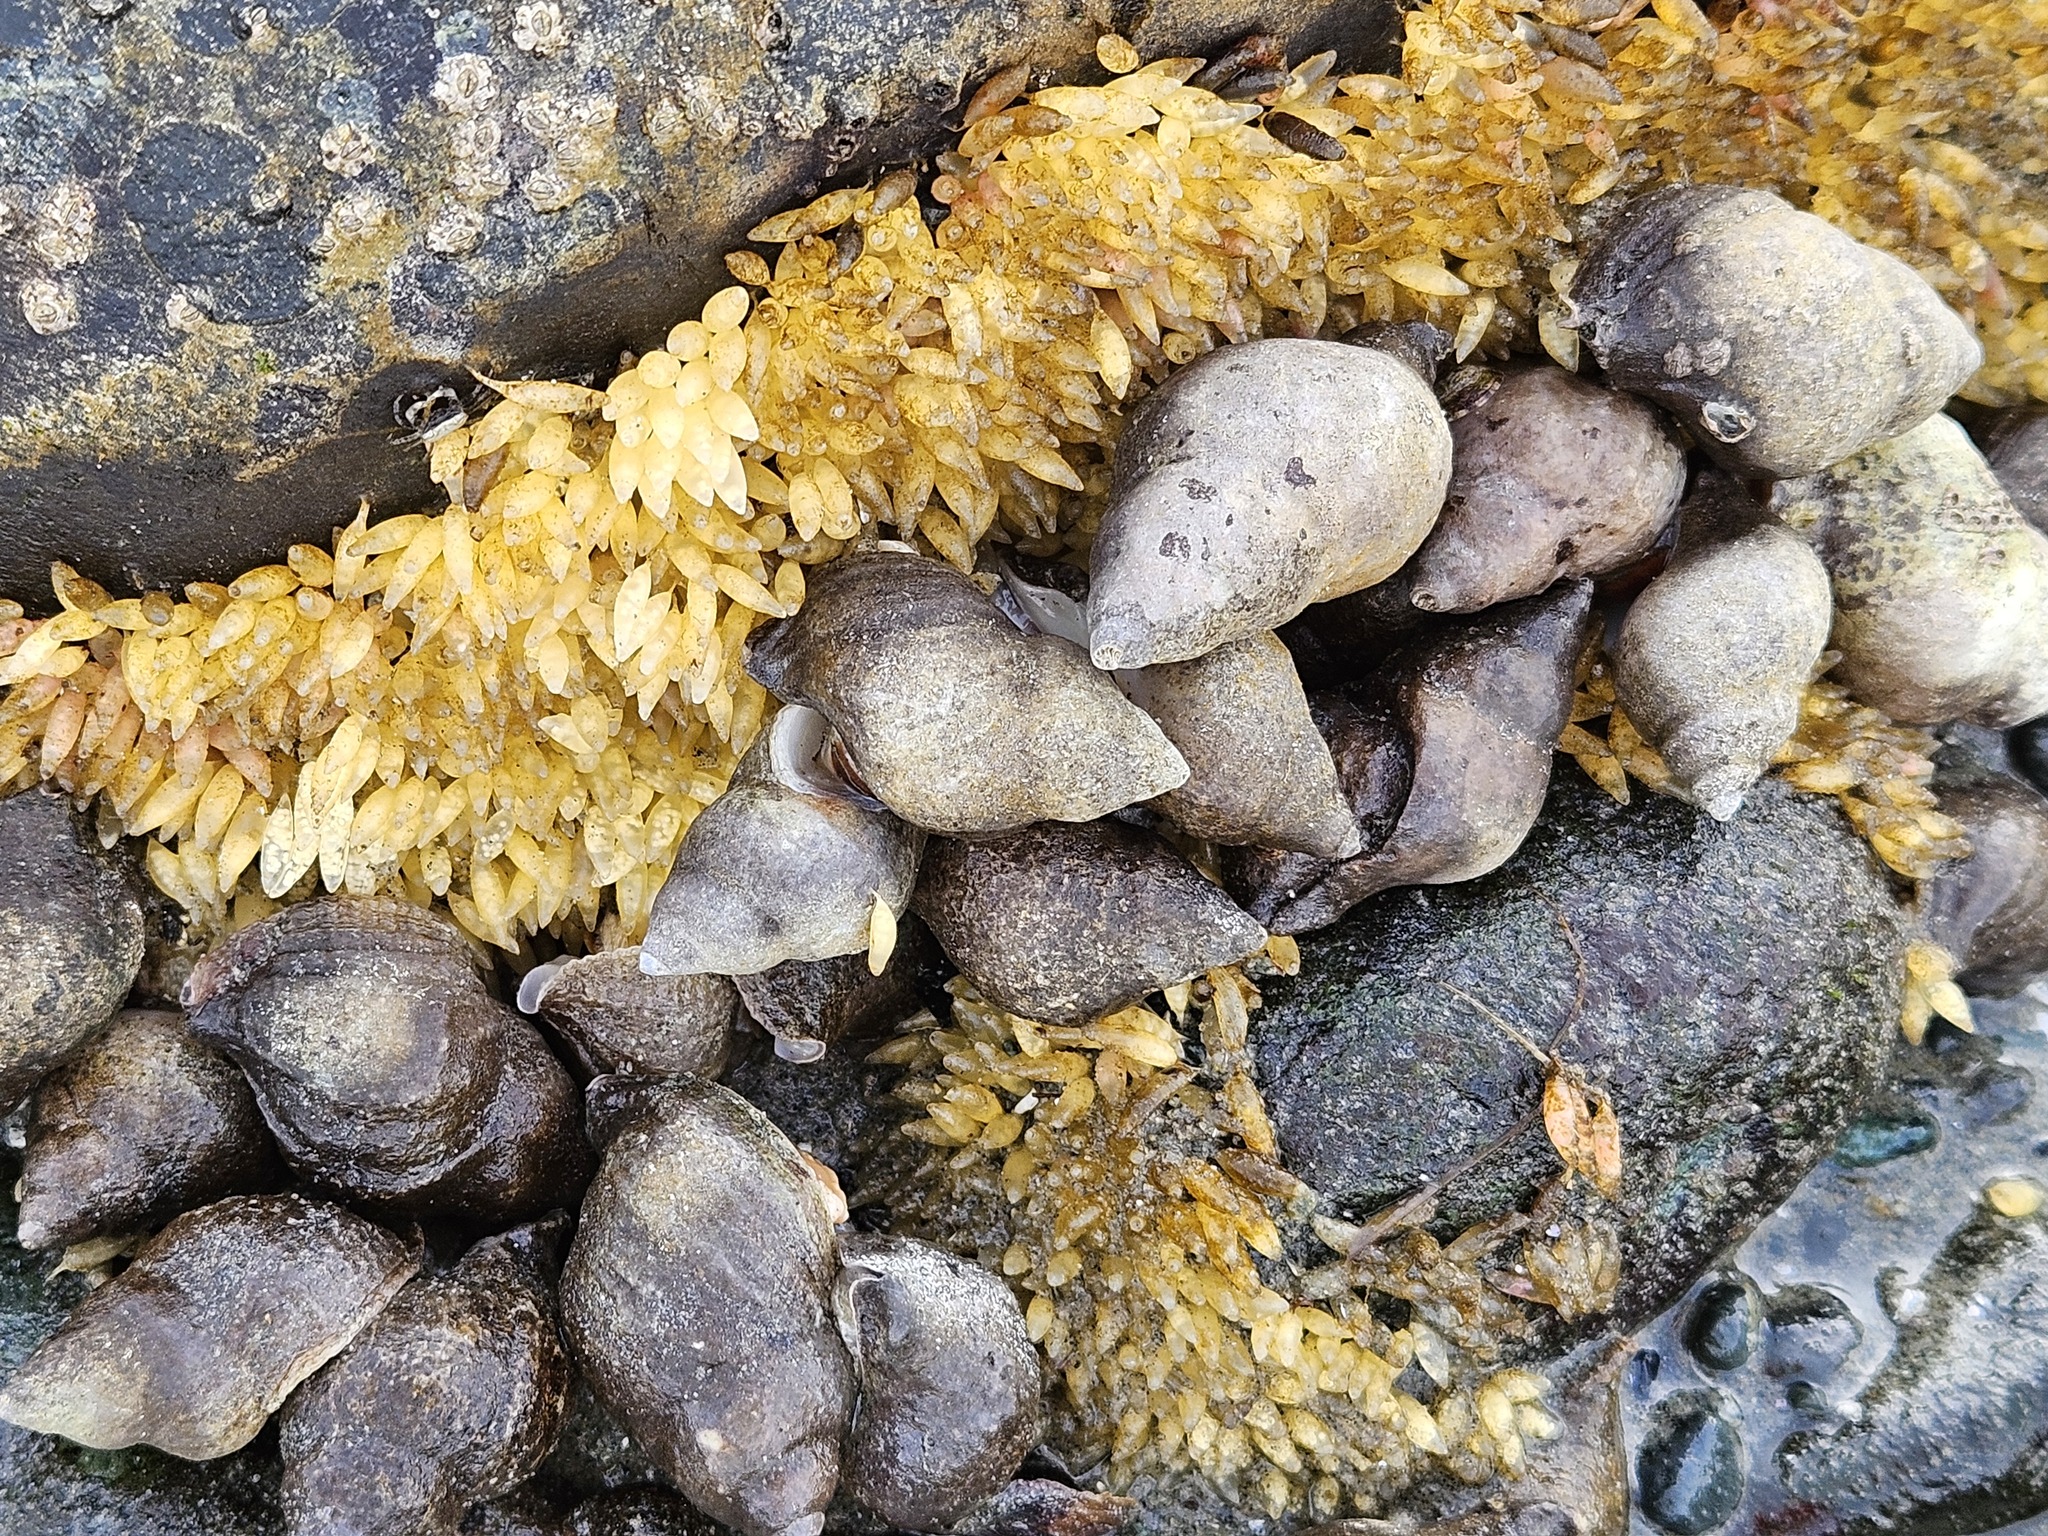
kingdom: Animalia
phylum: Mollusca
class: Gastropoda
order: Neogastropoda
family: Muricidae
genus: Nucella
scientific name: Nucella lamellosa
